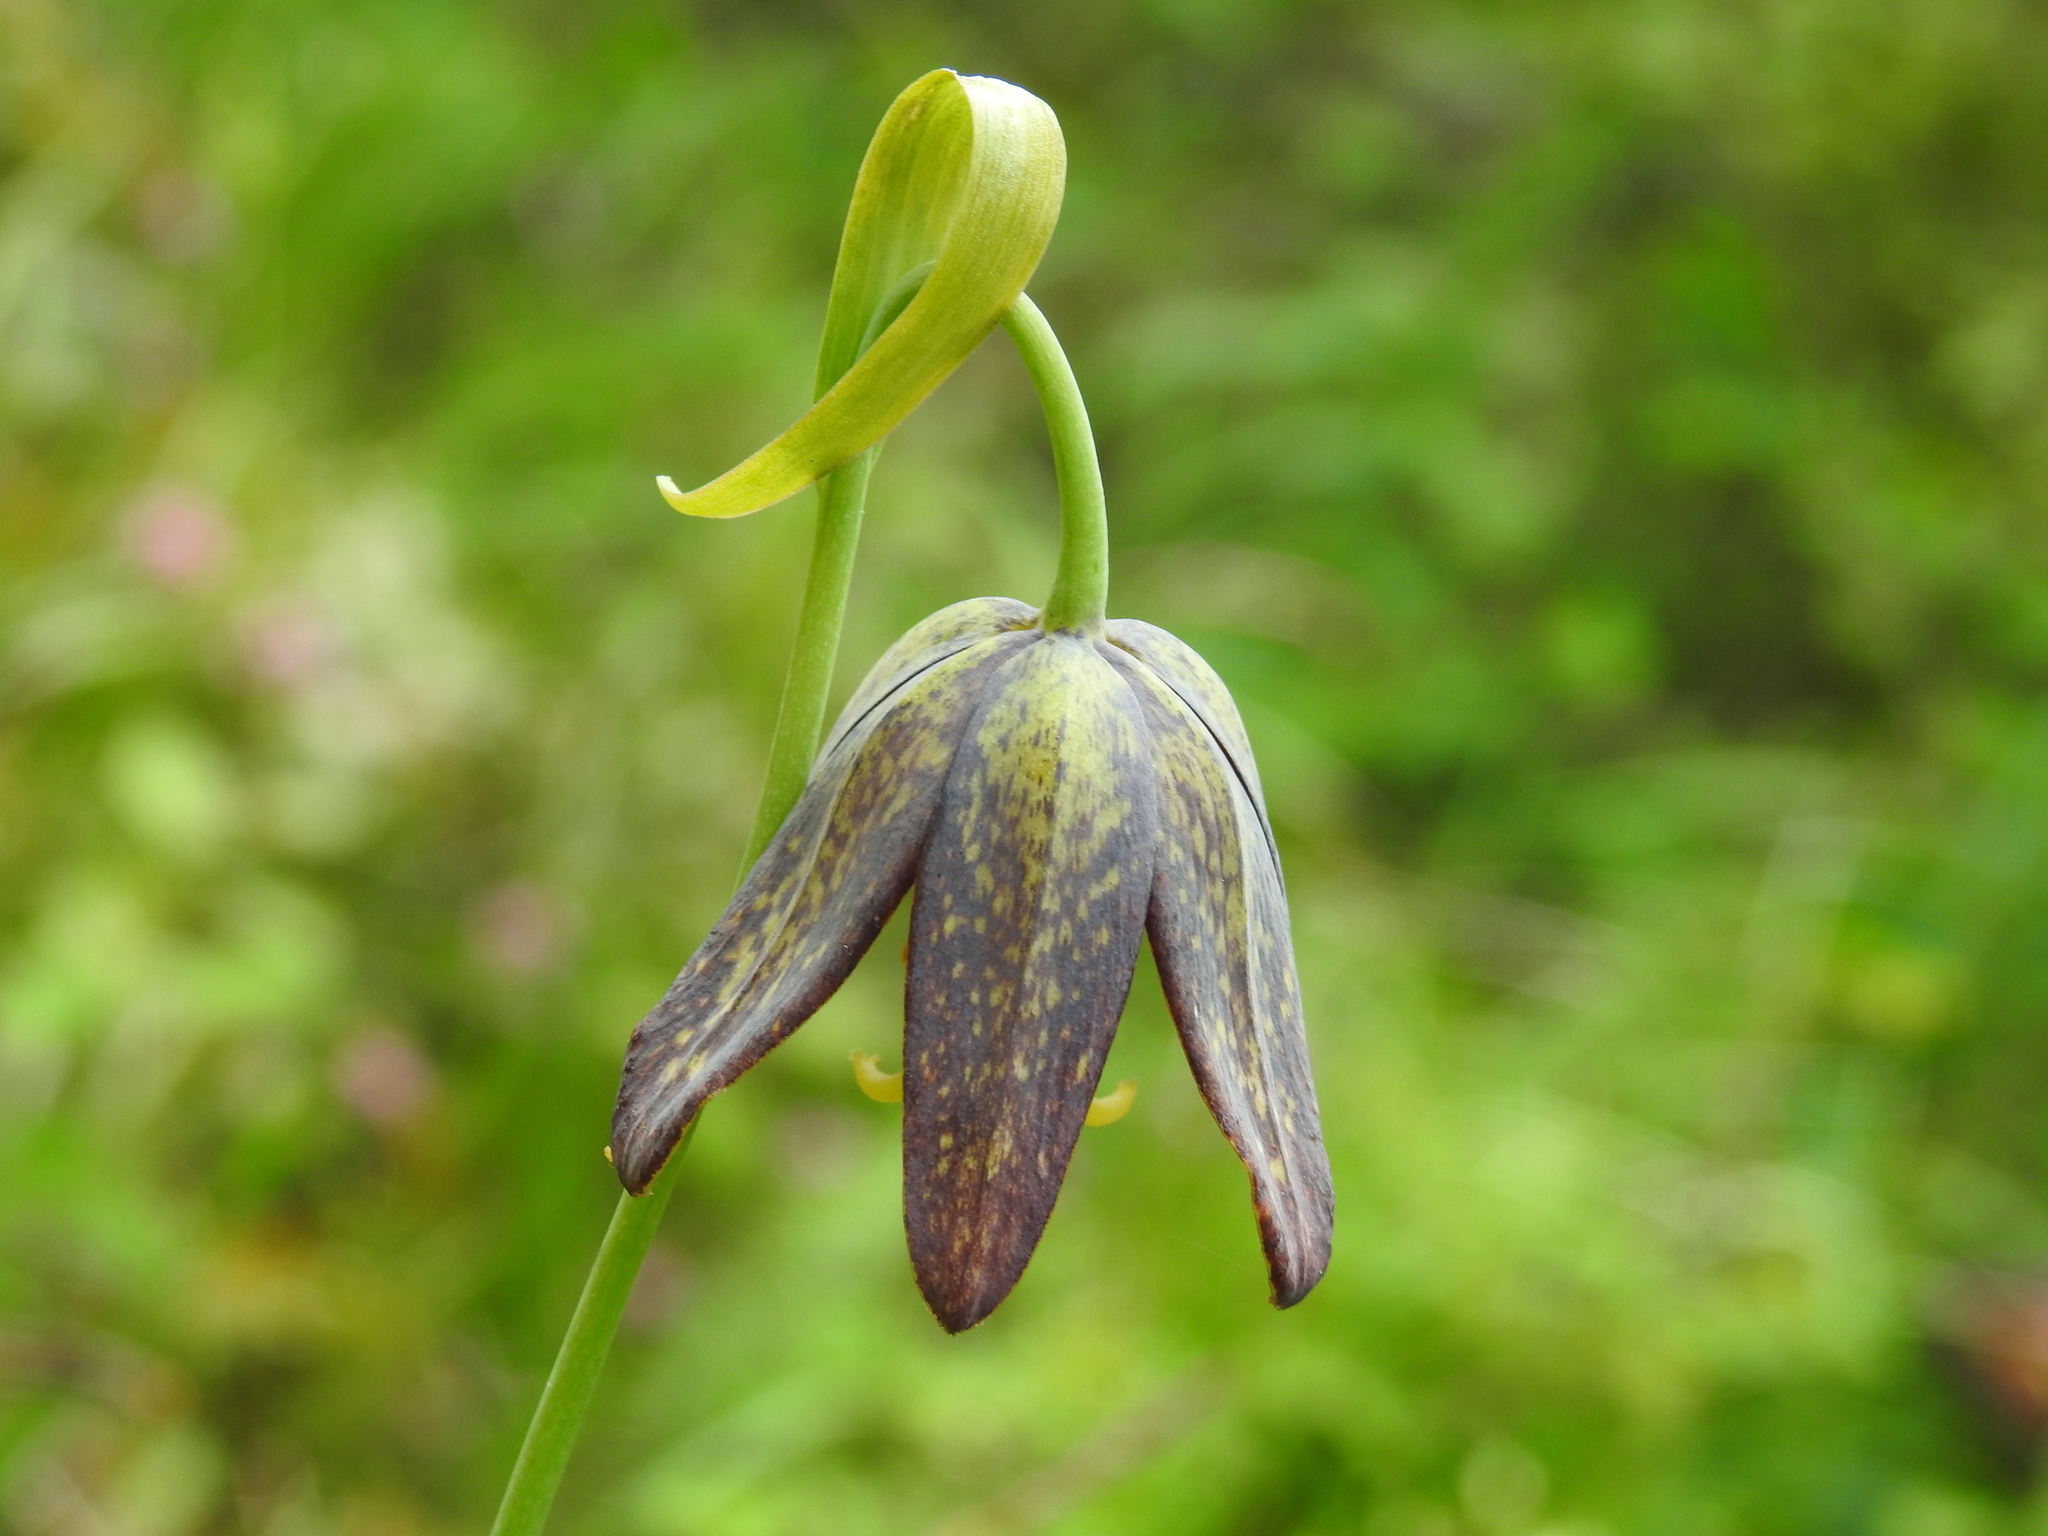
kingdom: Plantae
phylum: Tracheophyta
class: Liliopsida
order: Liliales
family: Liliaceae
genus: Fritillaria
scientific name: Fritillaria affinis
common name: Ojai fritillary
